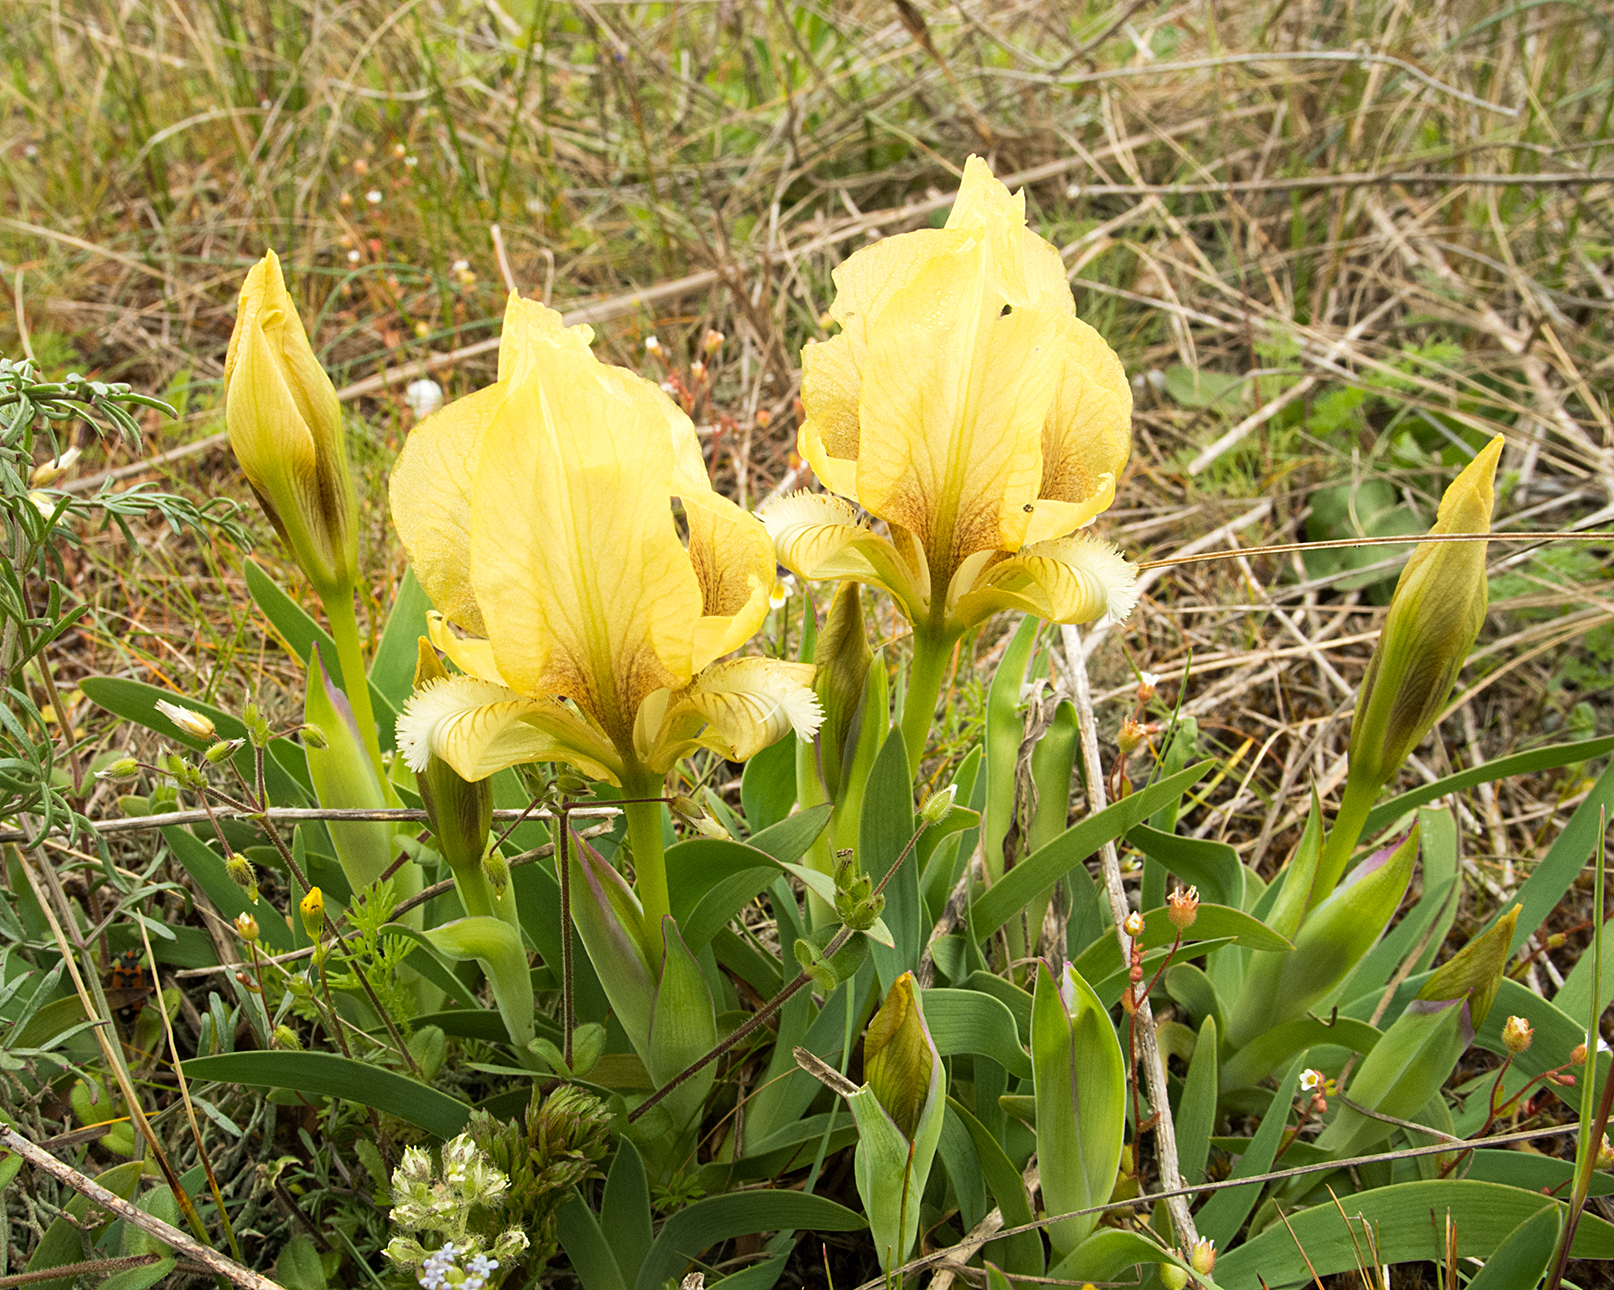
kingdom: Plantae
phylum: Tracheophyta
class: Liliopsida
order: Asparagales
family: Iridaceae
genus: Iris
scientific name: Iris suaveolens
